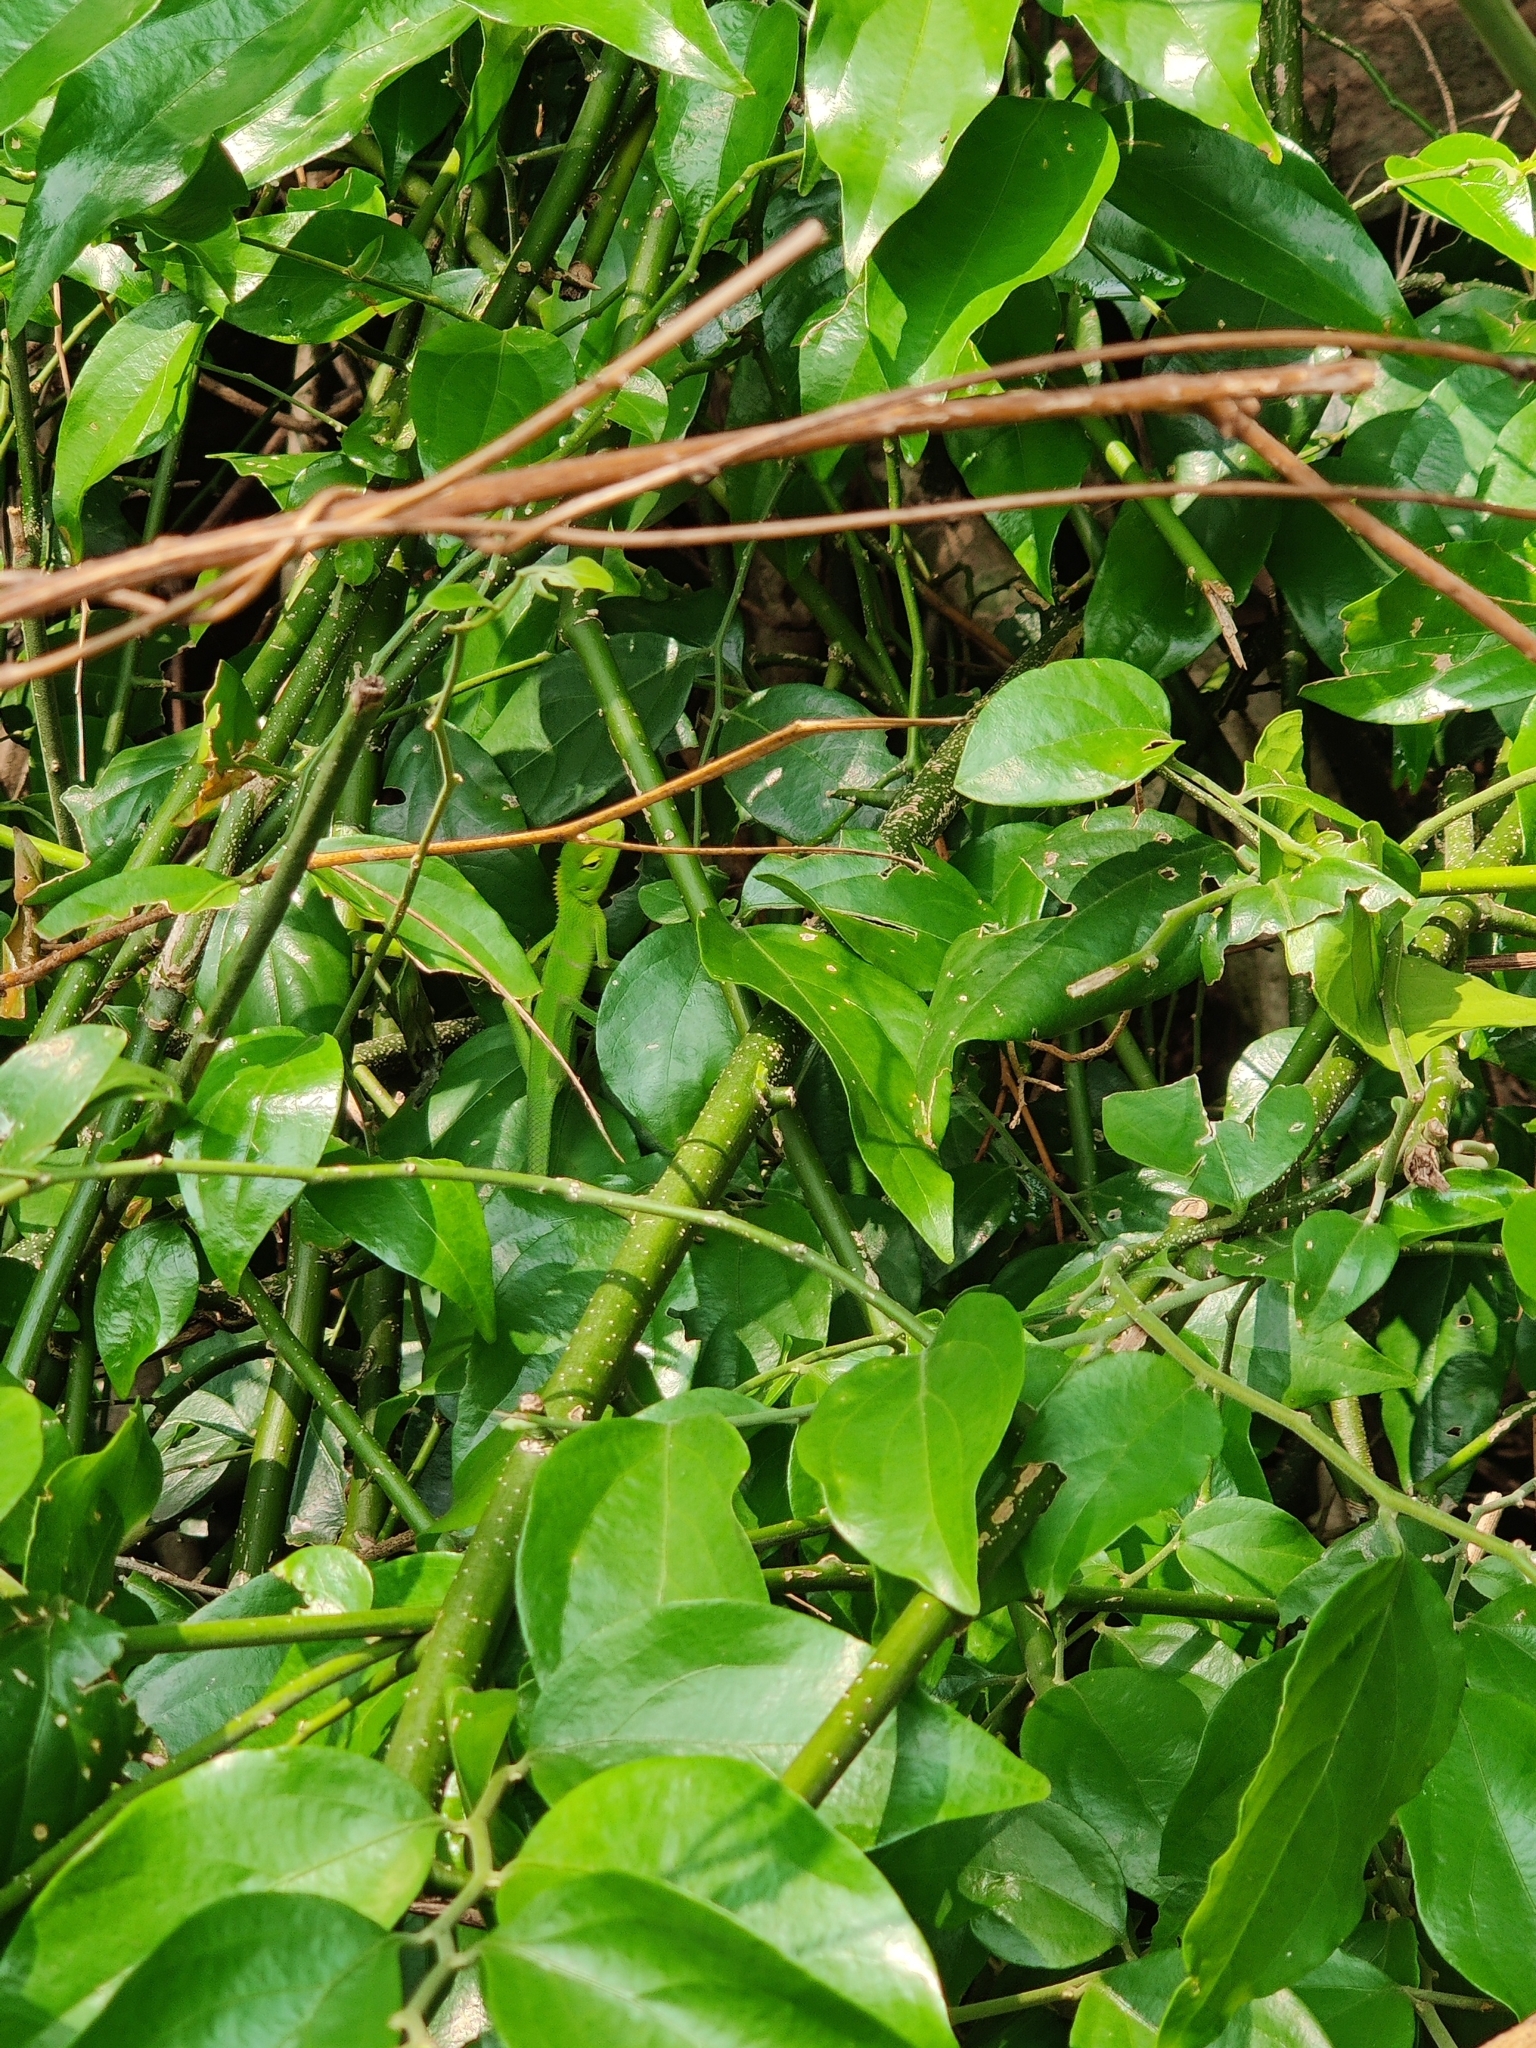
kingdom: Animalia
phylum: Chordata
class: Squamata
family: Agamidae
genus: Calotes
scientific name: Calotes calotes
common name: Common green forest lizard
